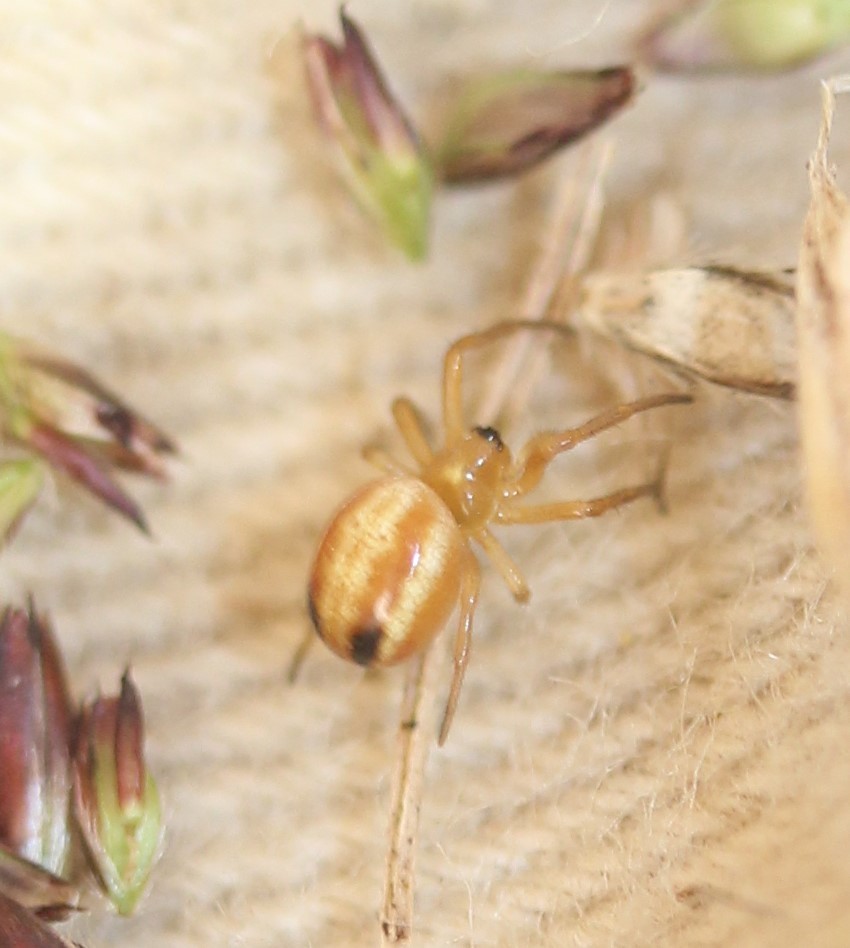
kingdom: Animalia
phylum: Arthropoda
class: Arachnida
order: Araneae
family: Araneidae
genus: Araneus
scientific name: Araneus pratensis
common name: Openfield orbweaver
